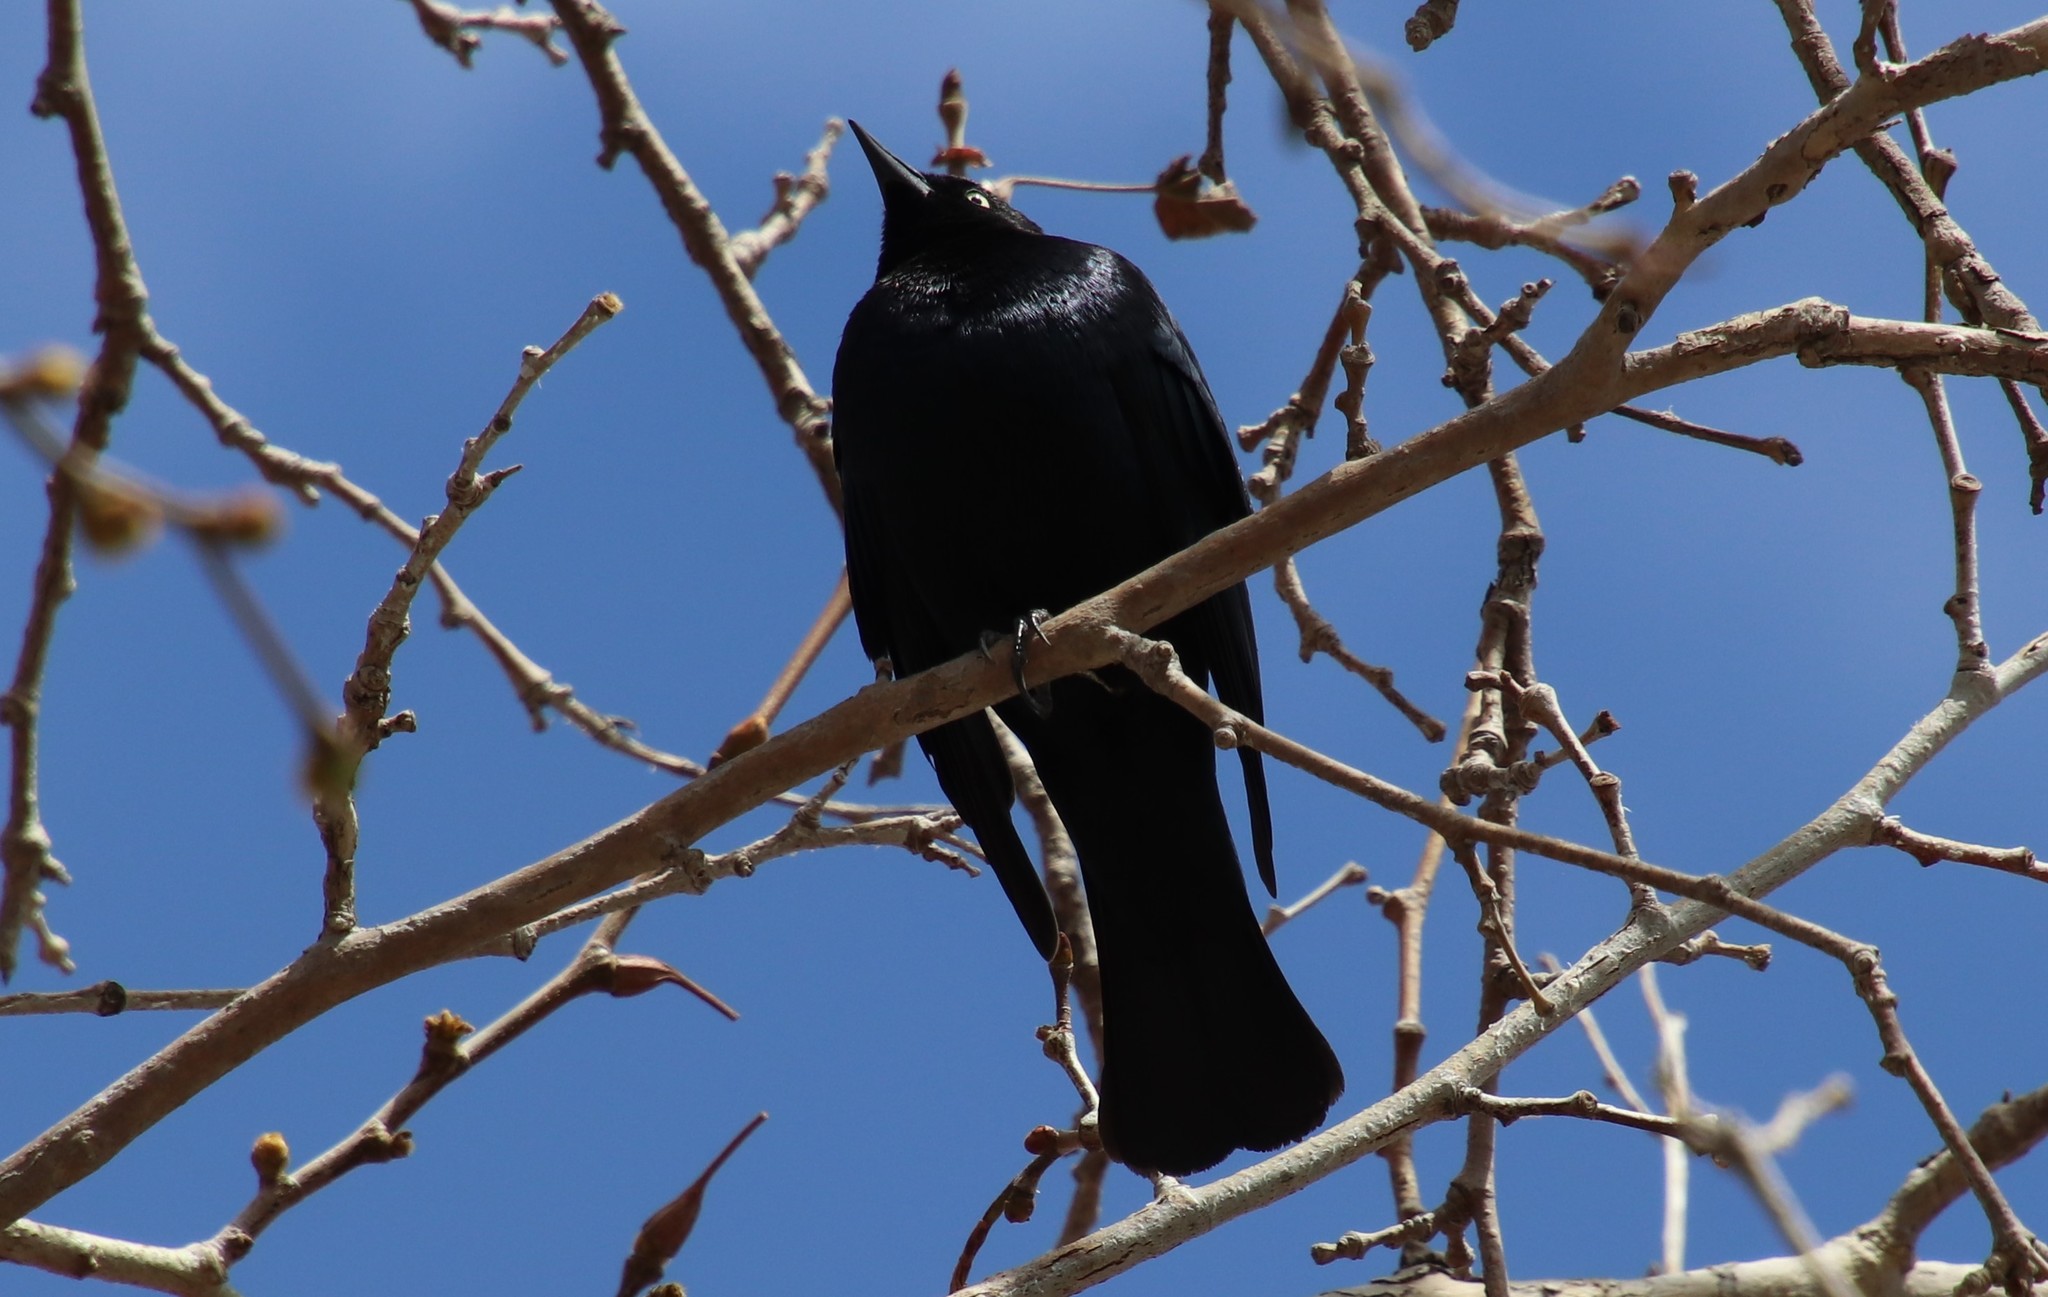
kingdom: Animalia
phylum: Chordata
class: Aves
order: Passeriformes
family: Icteridae
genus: Euphagus
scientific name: Euphagus cyanocephalus
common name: Brewer's blackbird
